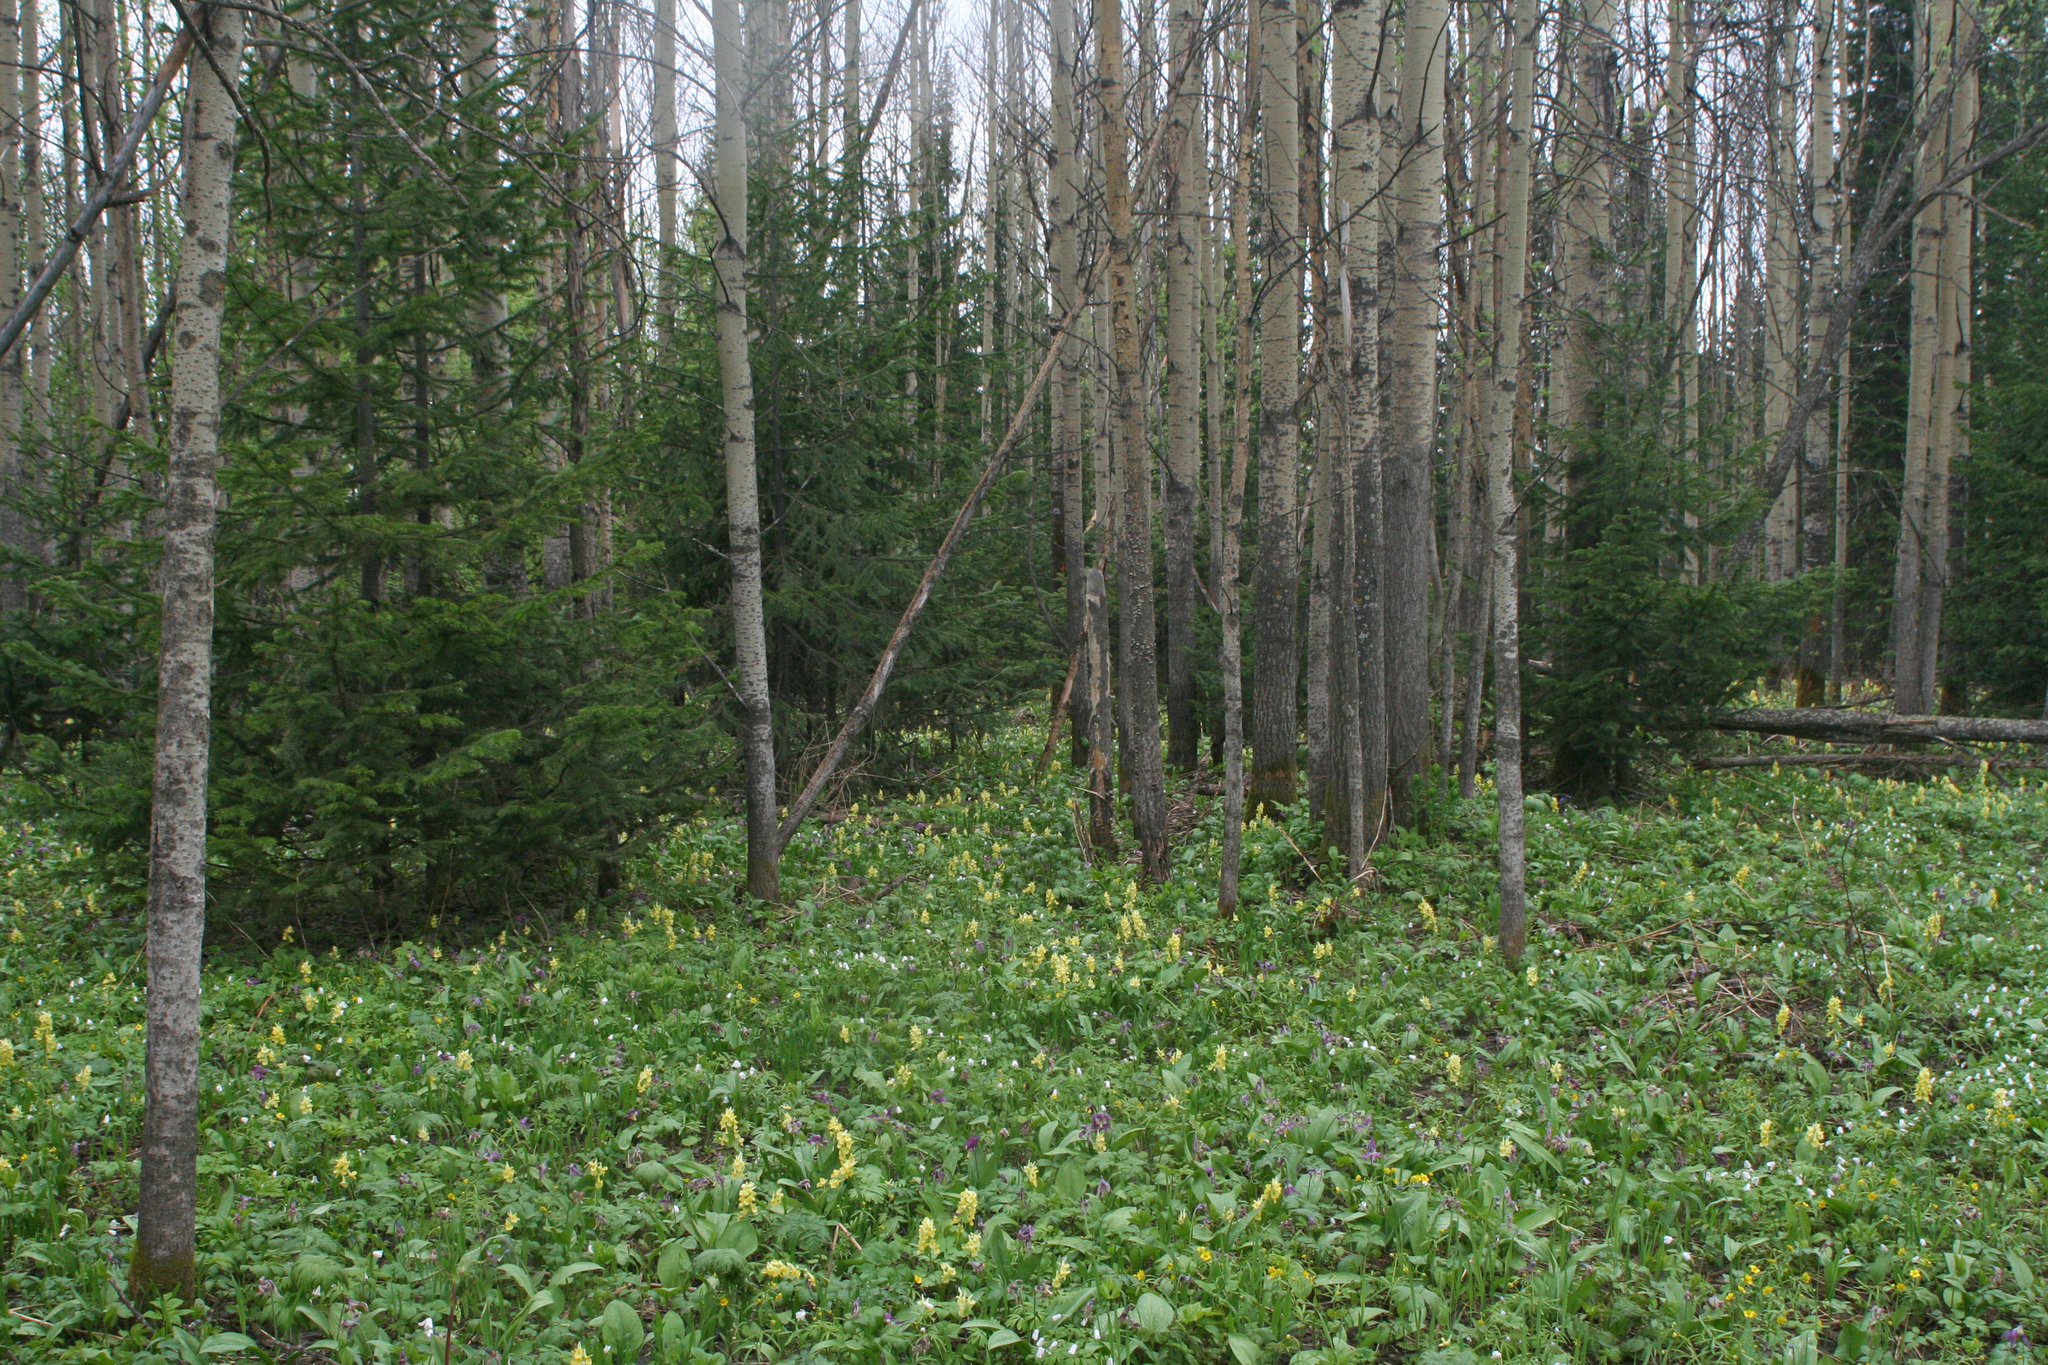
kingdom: Plantae
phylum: Tracheophyta
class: Magnoliopsida
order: Malpighiales
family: Salicaceae
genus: Populus
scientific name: Populus tremula
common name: European aspen
